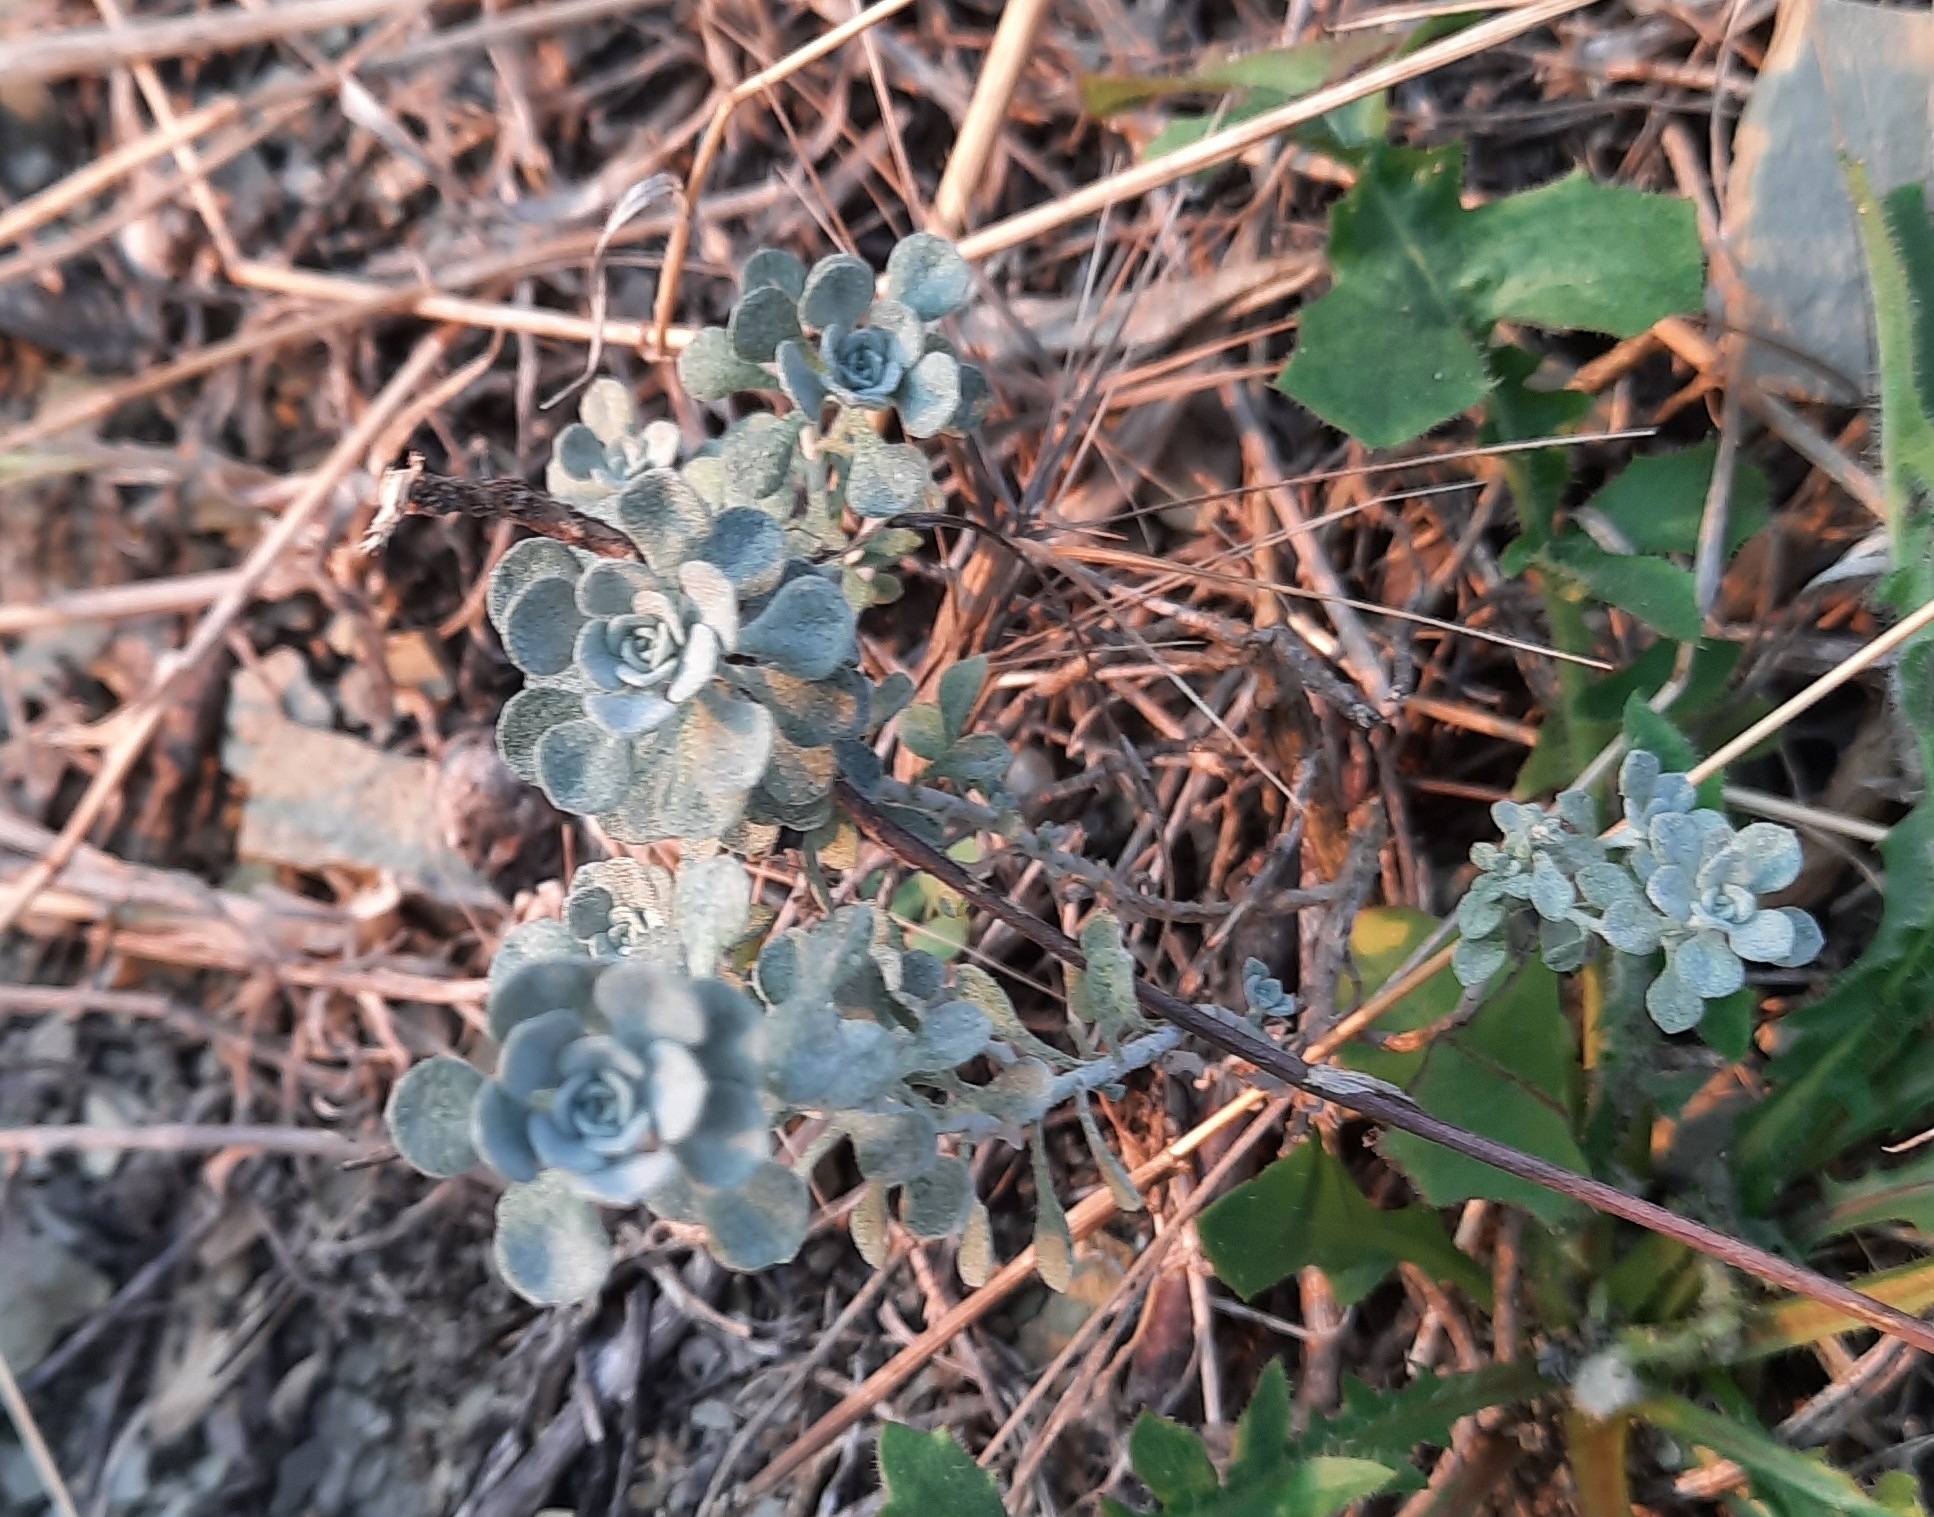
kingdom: Plantae
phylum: Tracheophyta
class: Magnoliopsida
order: Brassicales
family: Brassicaceae
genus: Odontarrhena
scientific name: Odontarrhena obtusifolia
